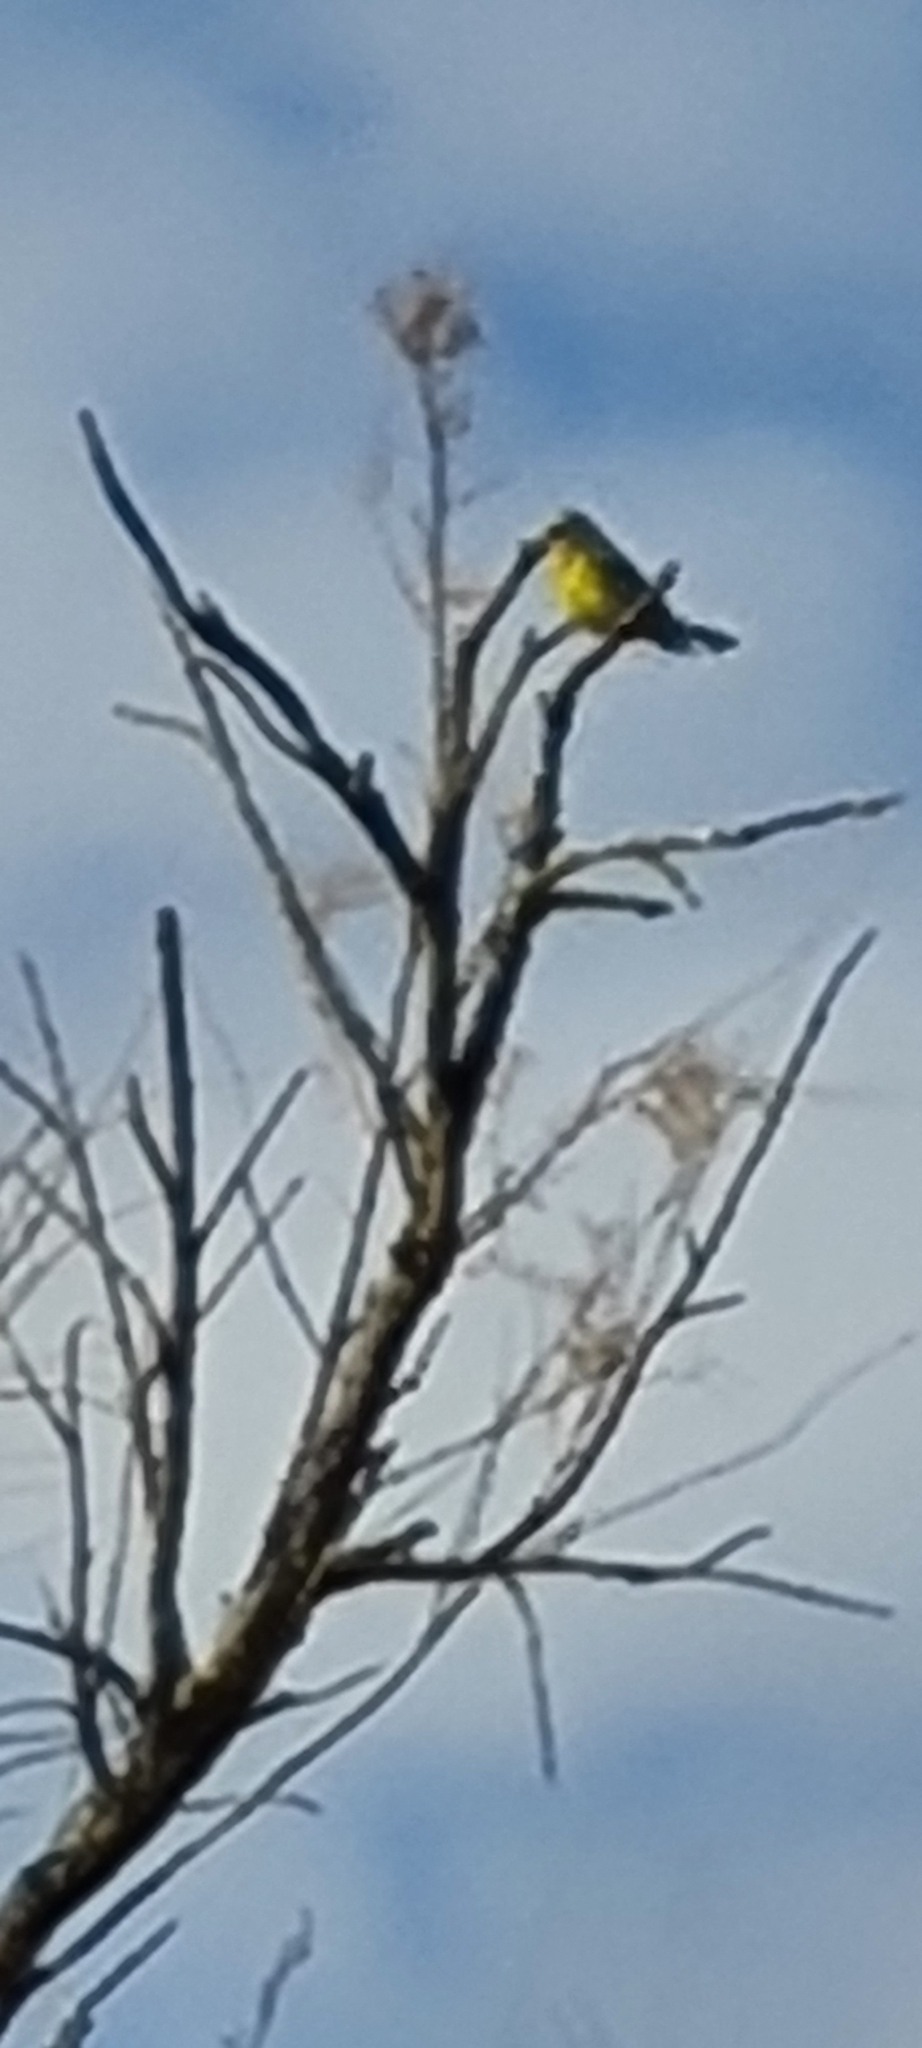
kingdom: Animalia
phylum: Chordata
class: Aves
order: Passeriformes
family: Fringillidae
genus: Serinus
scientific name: Serinus serinus
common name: European serin
